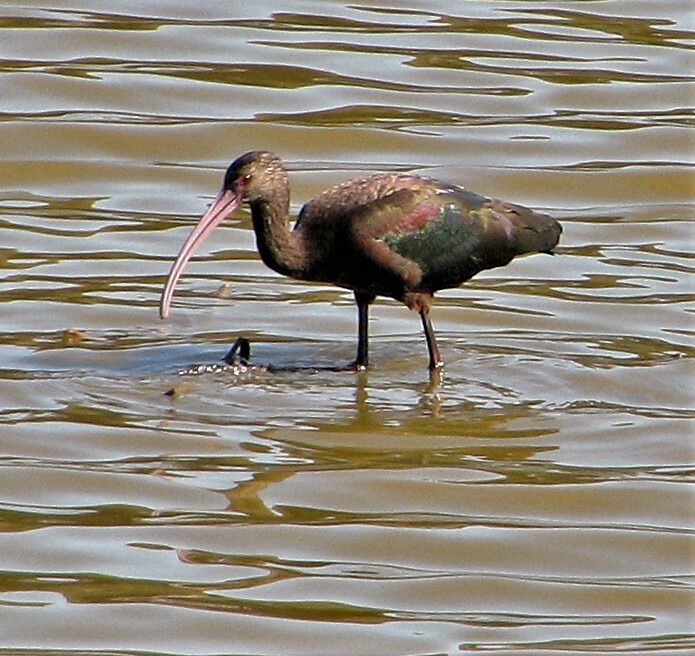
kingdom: Animalia
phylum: Chordata
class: Aves
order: Pelecaniformes
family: Threskiornithidae
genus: Plegadis
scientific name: Plegadis chihi
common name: White-faced ibis
